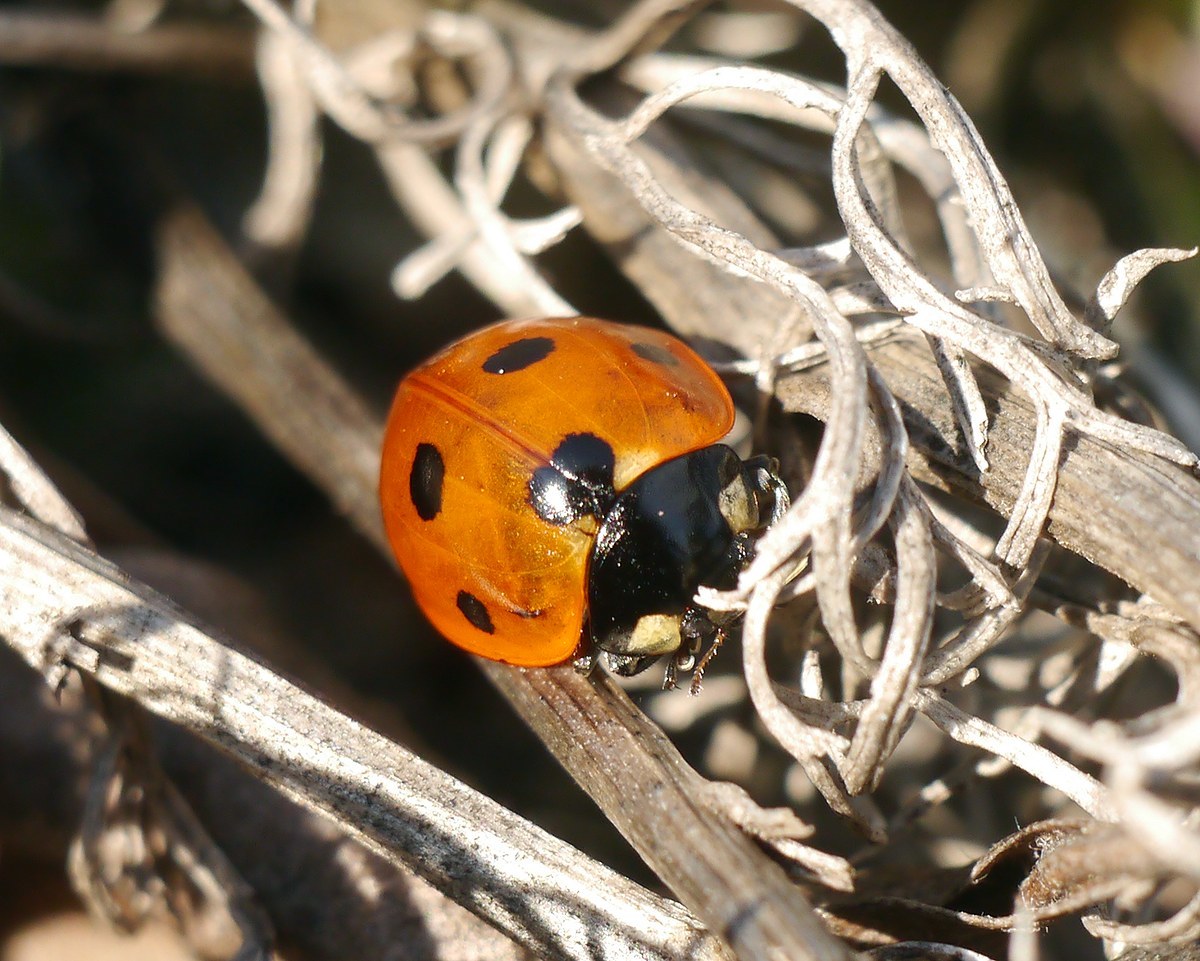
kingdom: Animalia
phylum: Arthropoda
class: Insecta
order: Coleoptera
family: Coccinellidae
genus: Coccinella
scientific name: Coccinella septempunctata
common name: Sevenspotted lady beetle
